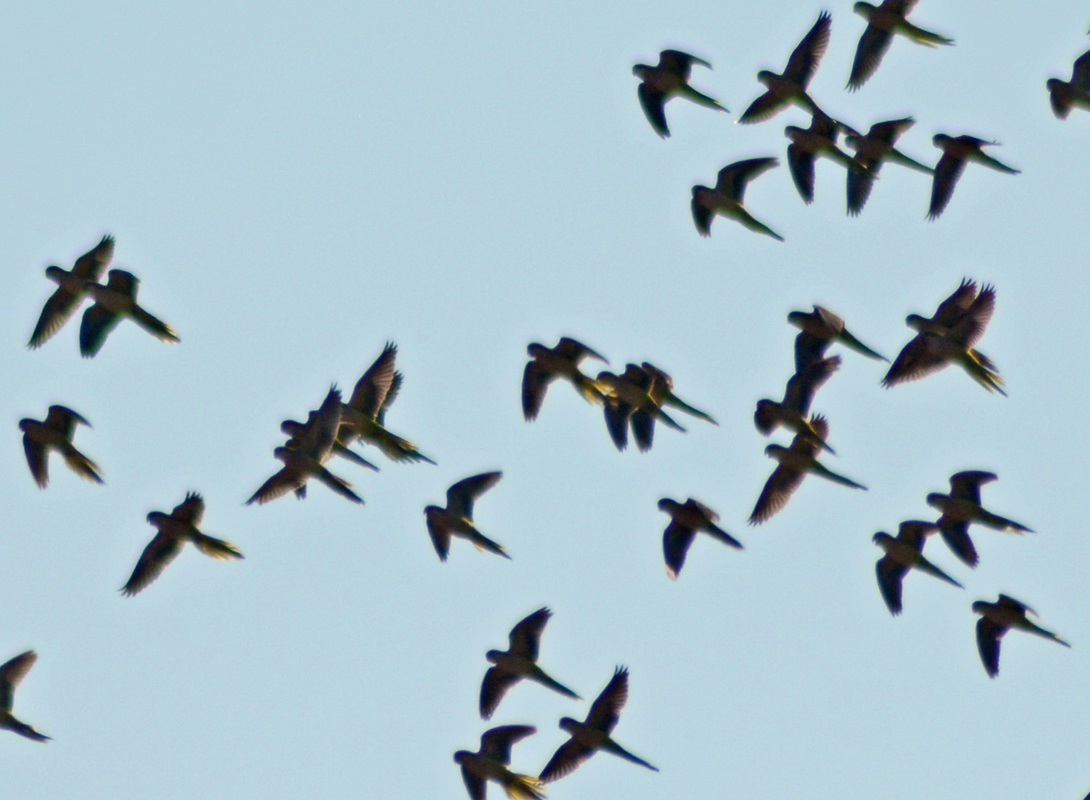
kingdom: Animalia
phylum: Chordata
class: Aves
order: Psittaciformes
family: Psittacidae
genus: Myiopsitta
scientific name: Myiopsitta monachus
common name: Monk parakeet
